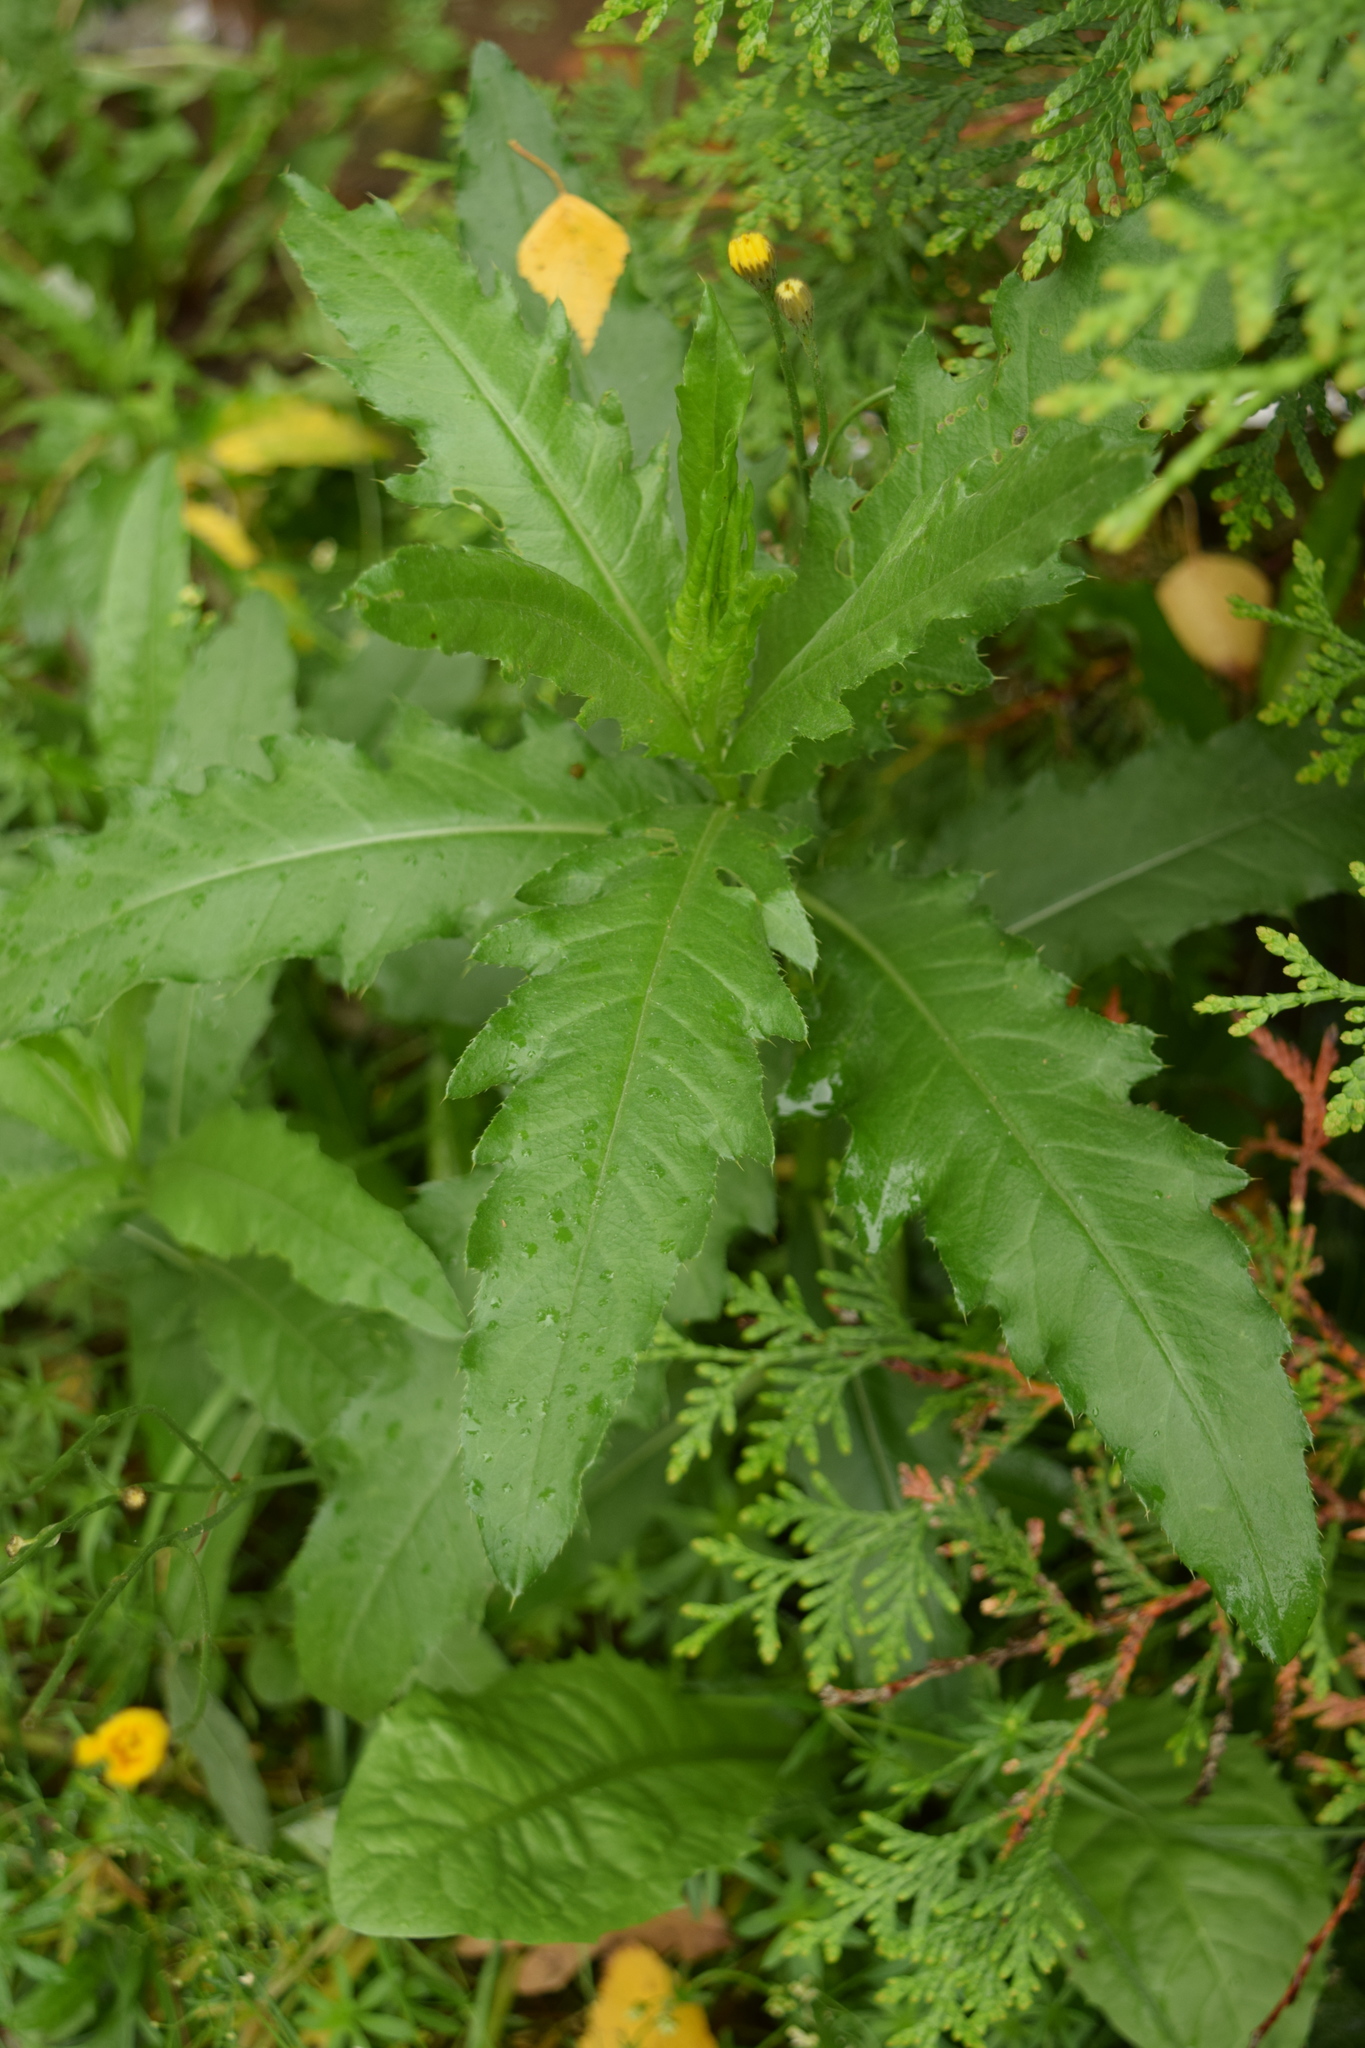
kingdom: Plantae
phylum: Tracheophyta
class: Magnoliopsida
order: Asterales
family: Asteraceae
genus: Cirsium
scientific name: Cirsium arvense
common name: Creeping thistle
